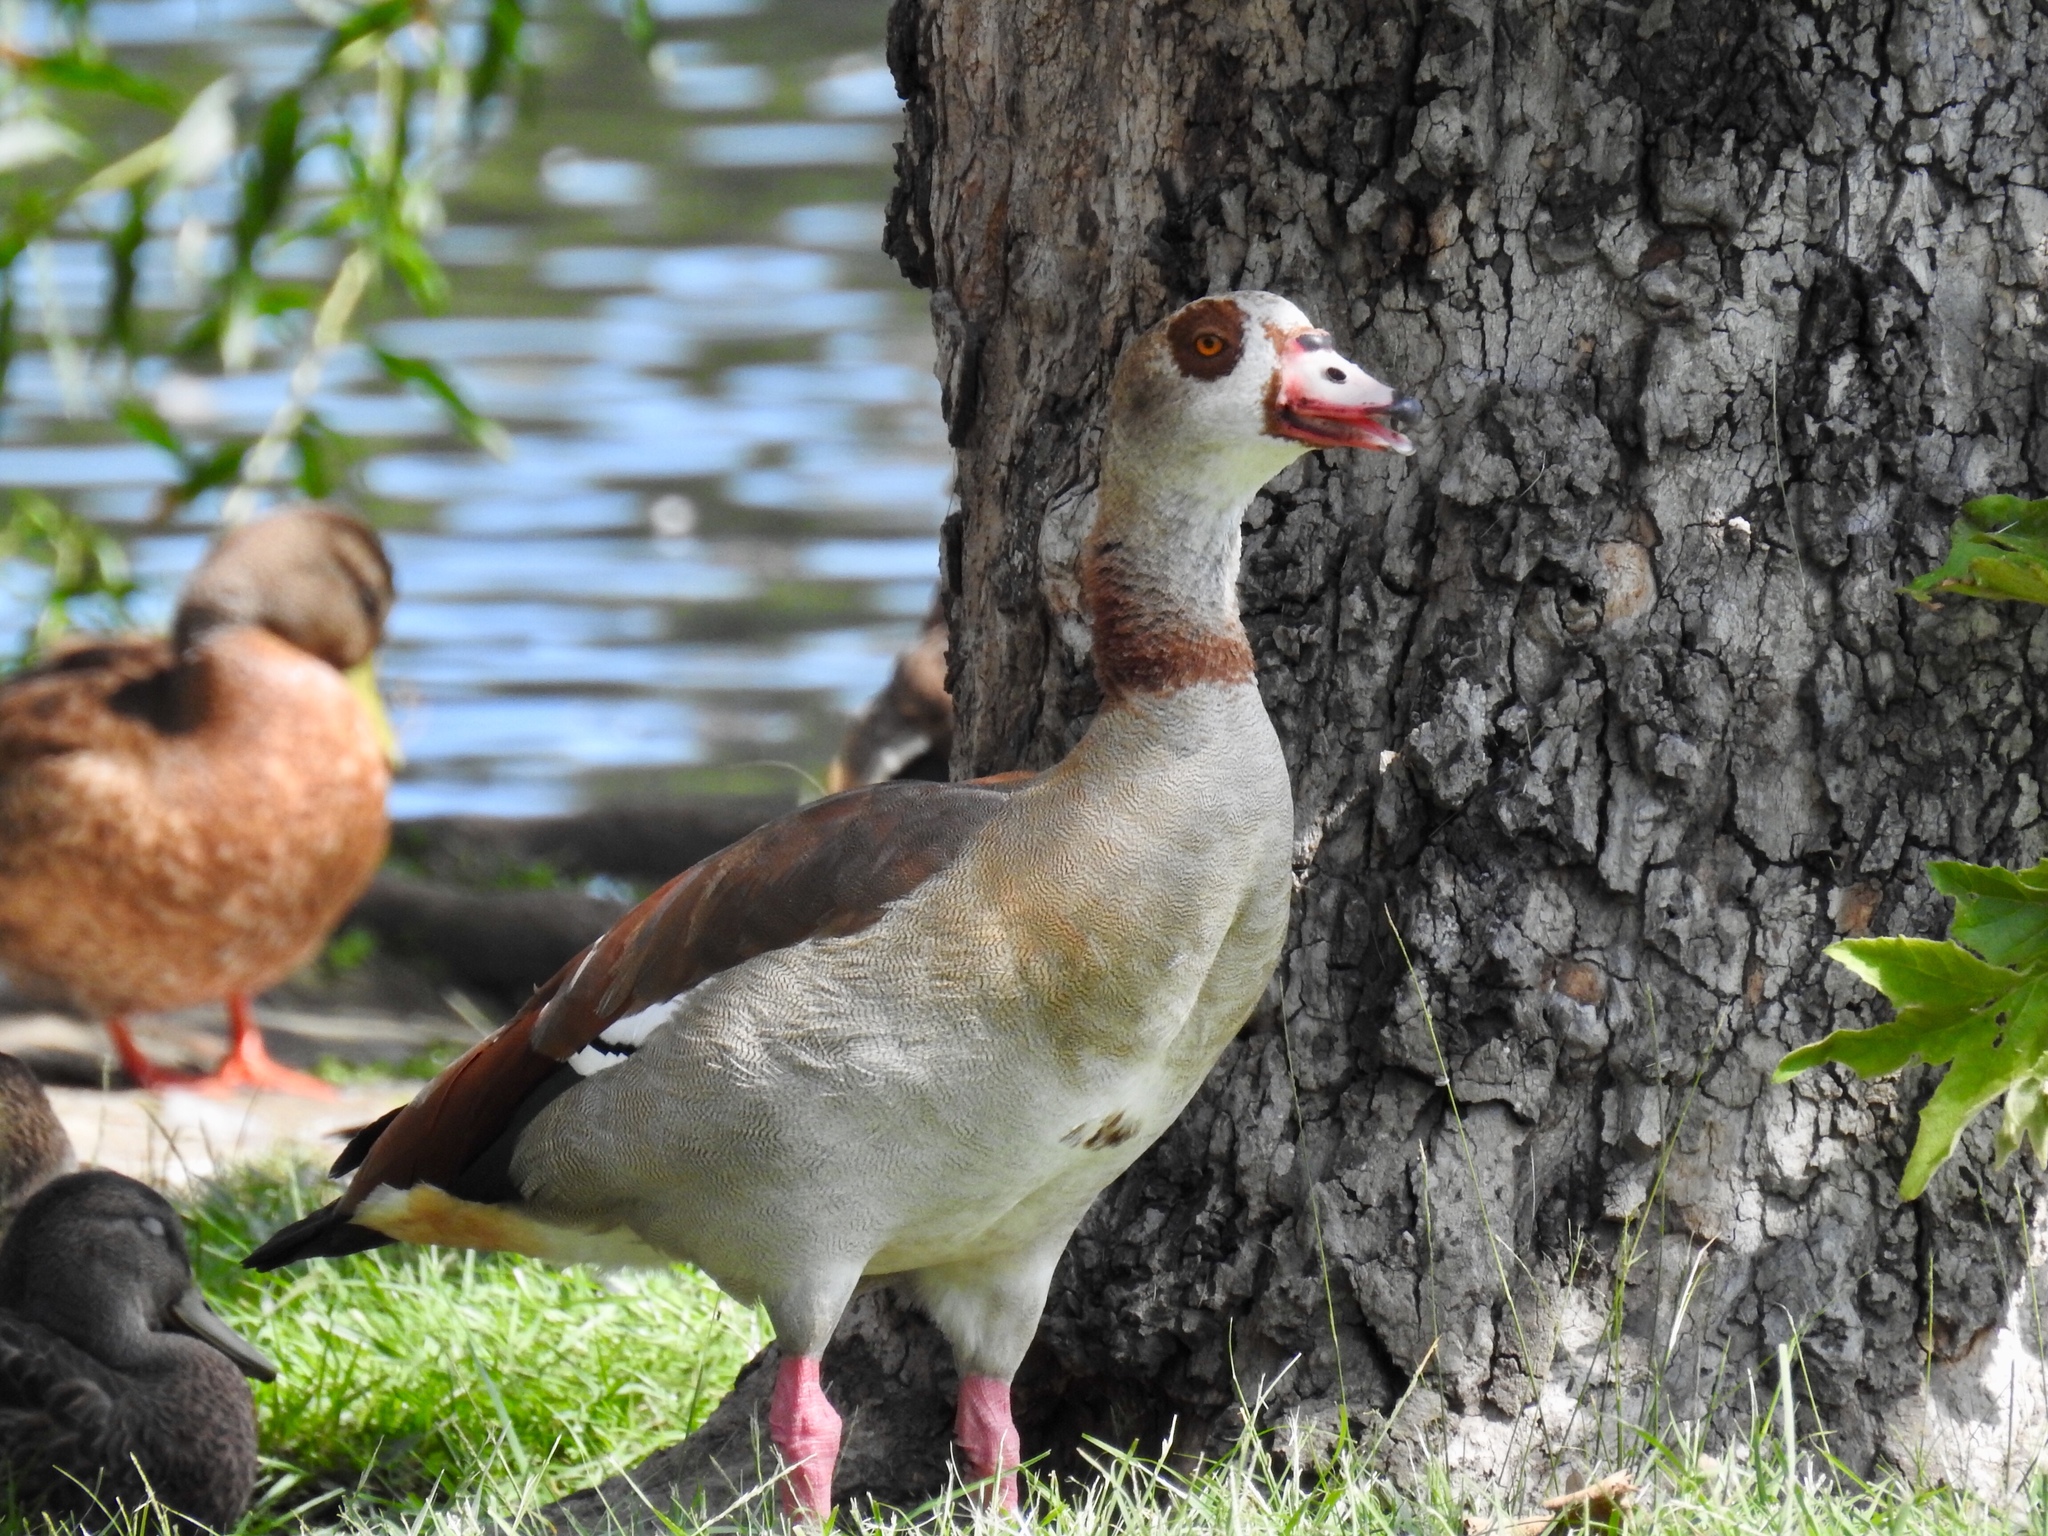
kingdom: Animalia
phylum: Chordata
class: Aves
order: Anseriformes
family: Anatidae
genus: Alopochen
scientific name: Alopochen aegyptiaca
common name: Egyptian goose
